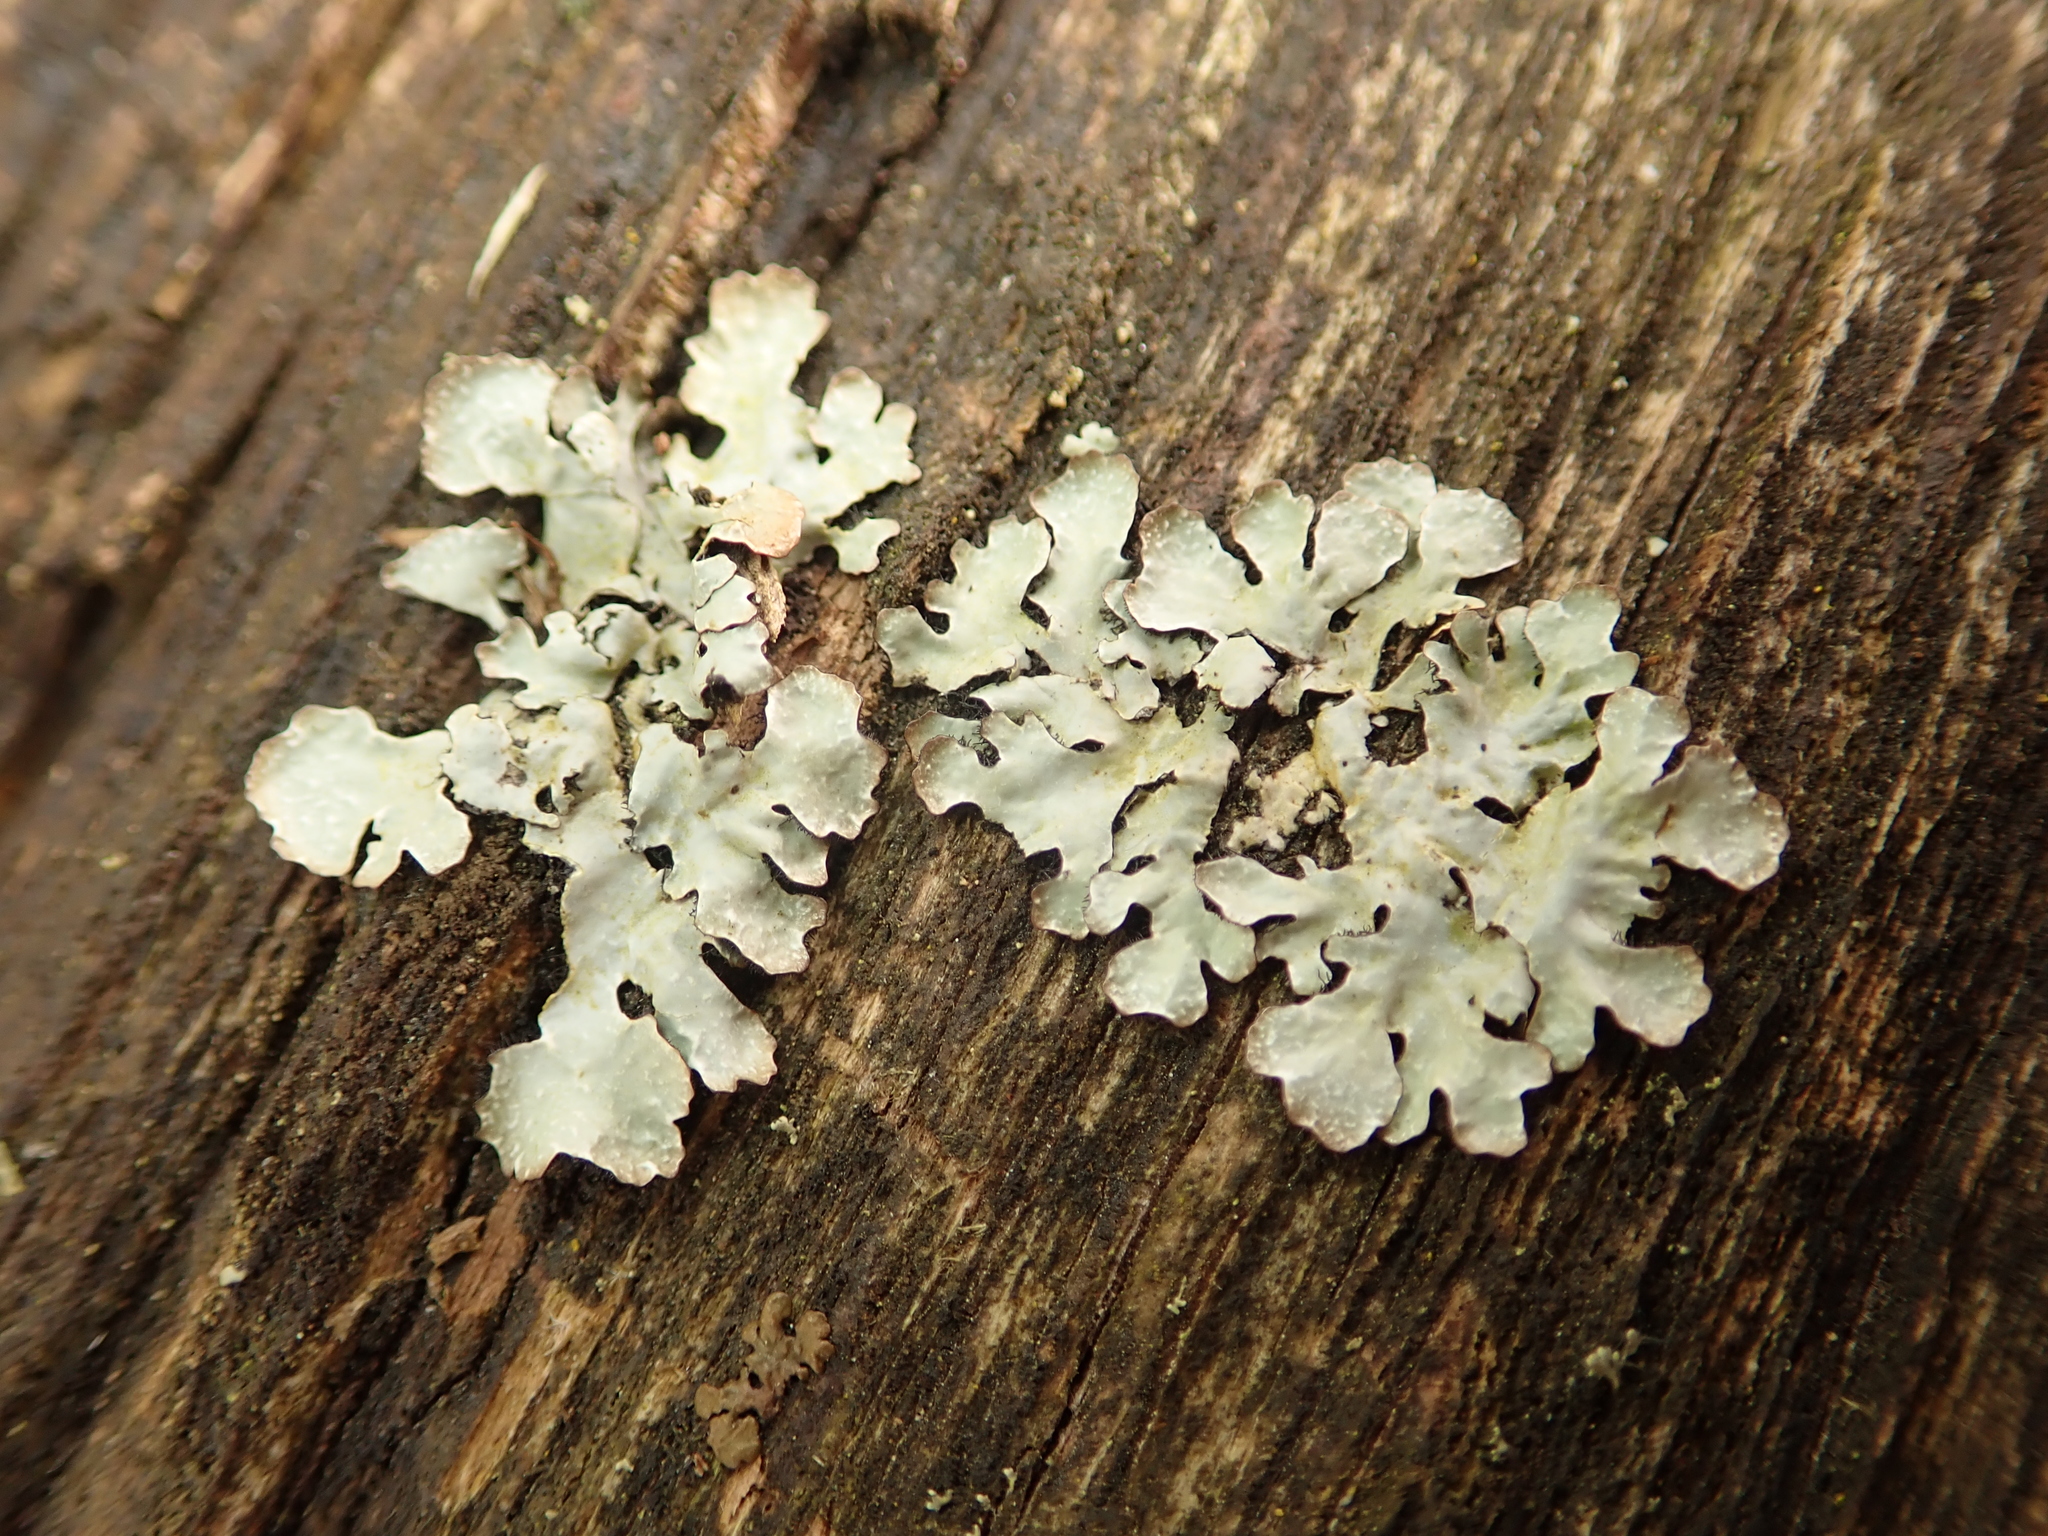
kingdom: Fungi
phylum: Ascomycota
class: Lecanoromycetes
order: Lecanorales
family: Parmeliaceae
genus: Parmelia
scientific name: Parmelia sulcata
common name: Netted shield lichen
